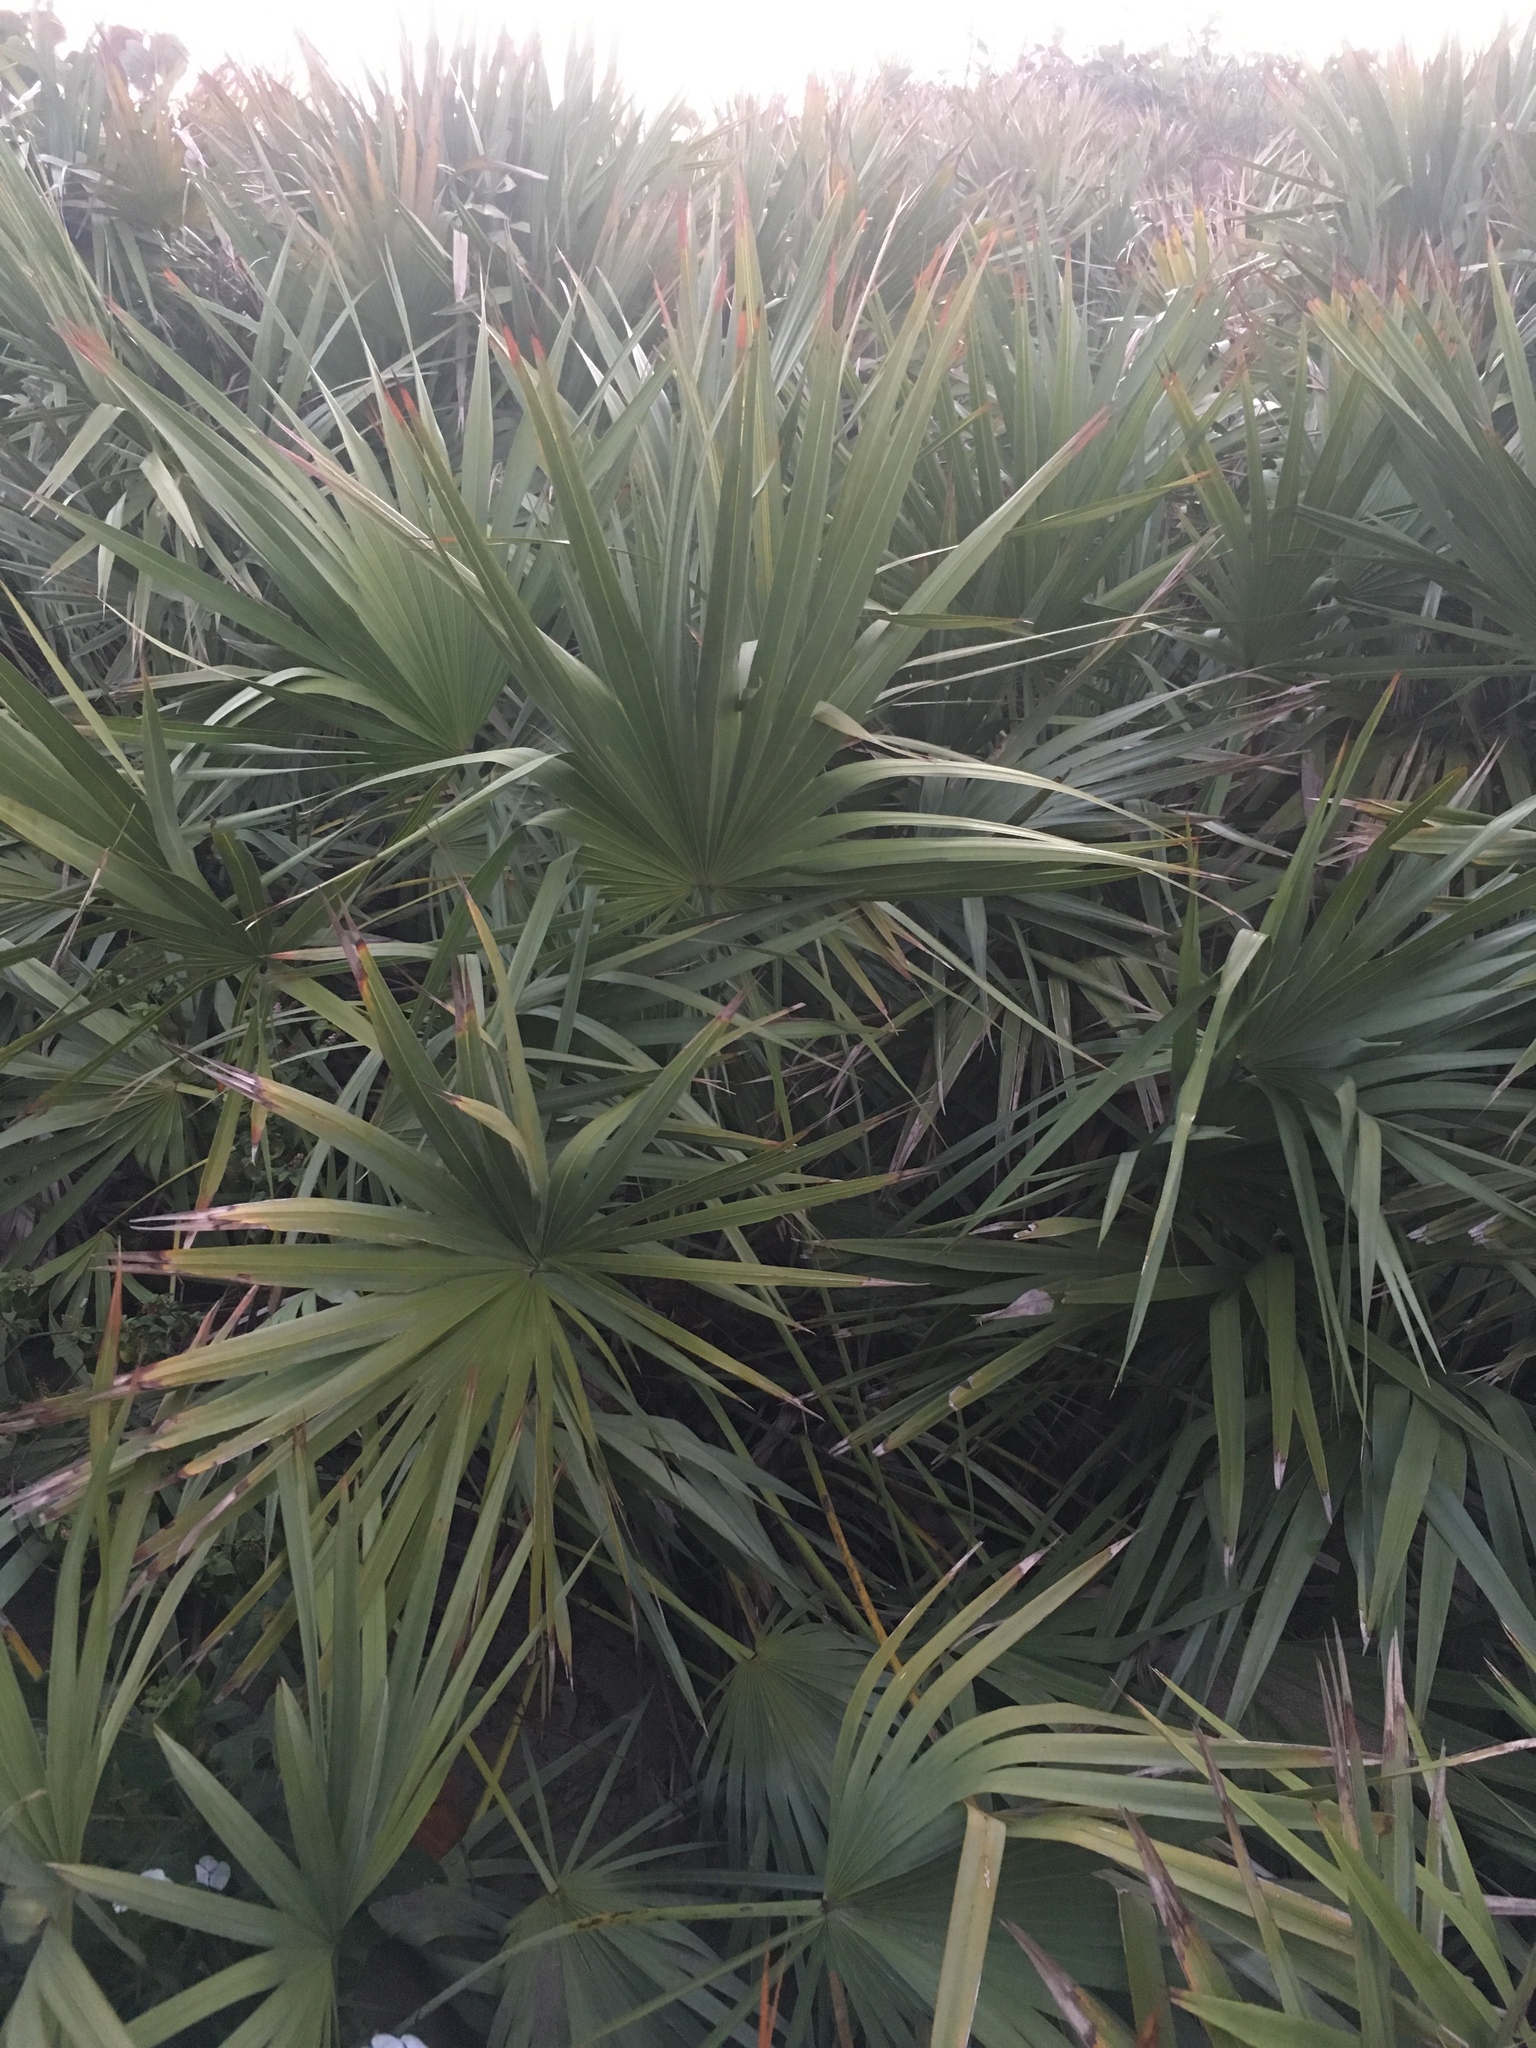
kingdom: Plantae
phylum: Tracheophyta
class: Liliopsida
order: Arecales
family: Arecaceae
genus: Serenoa
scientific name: Serenoa repens
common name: Saw-palmetto
